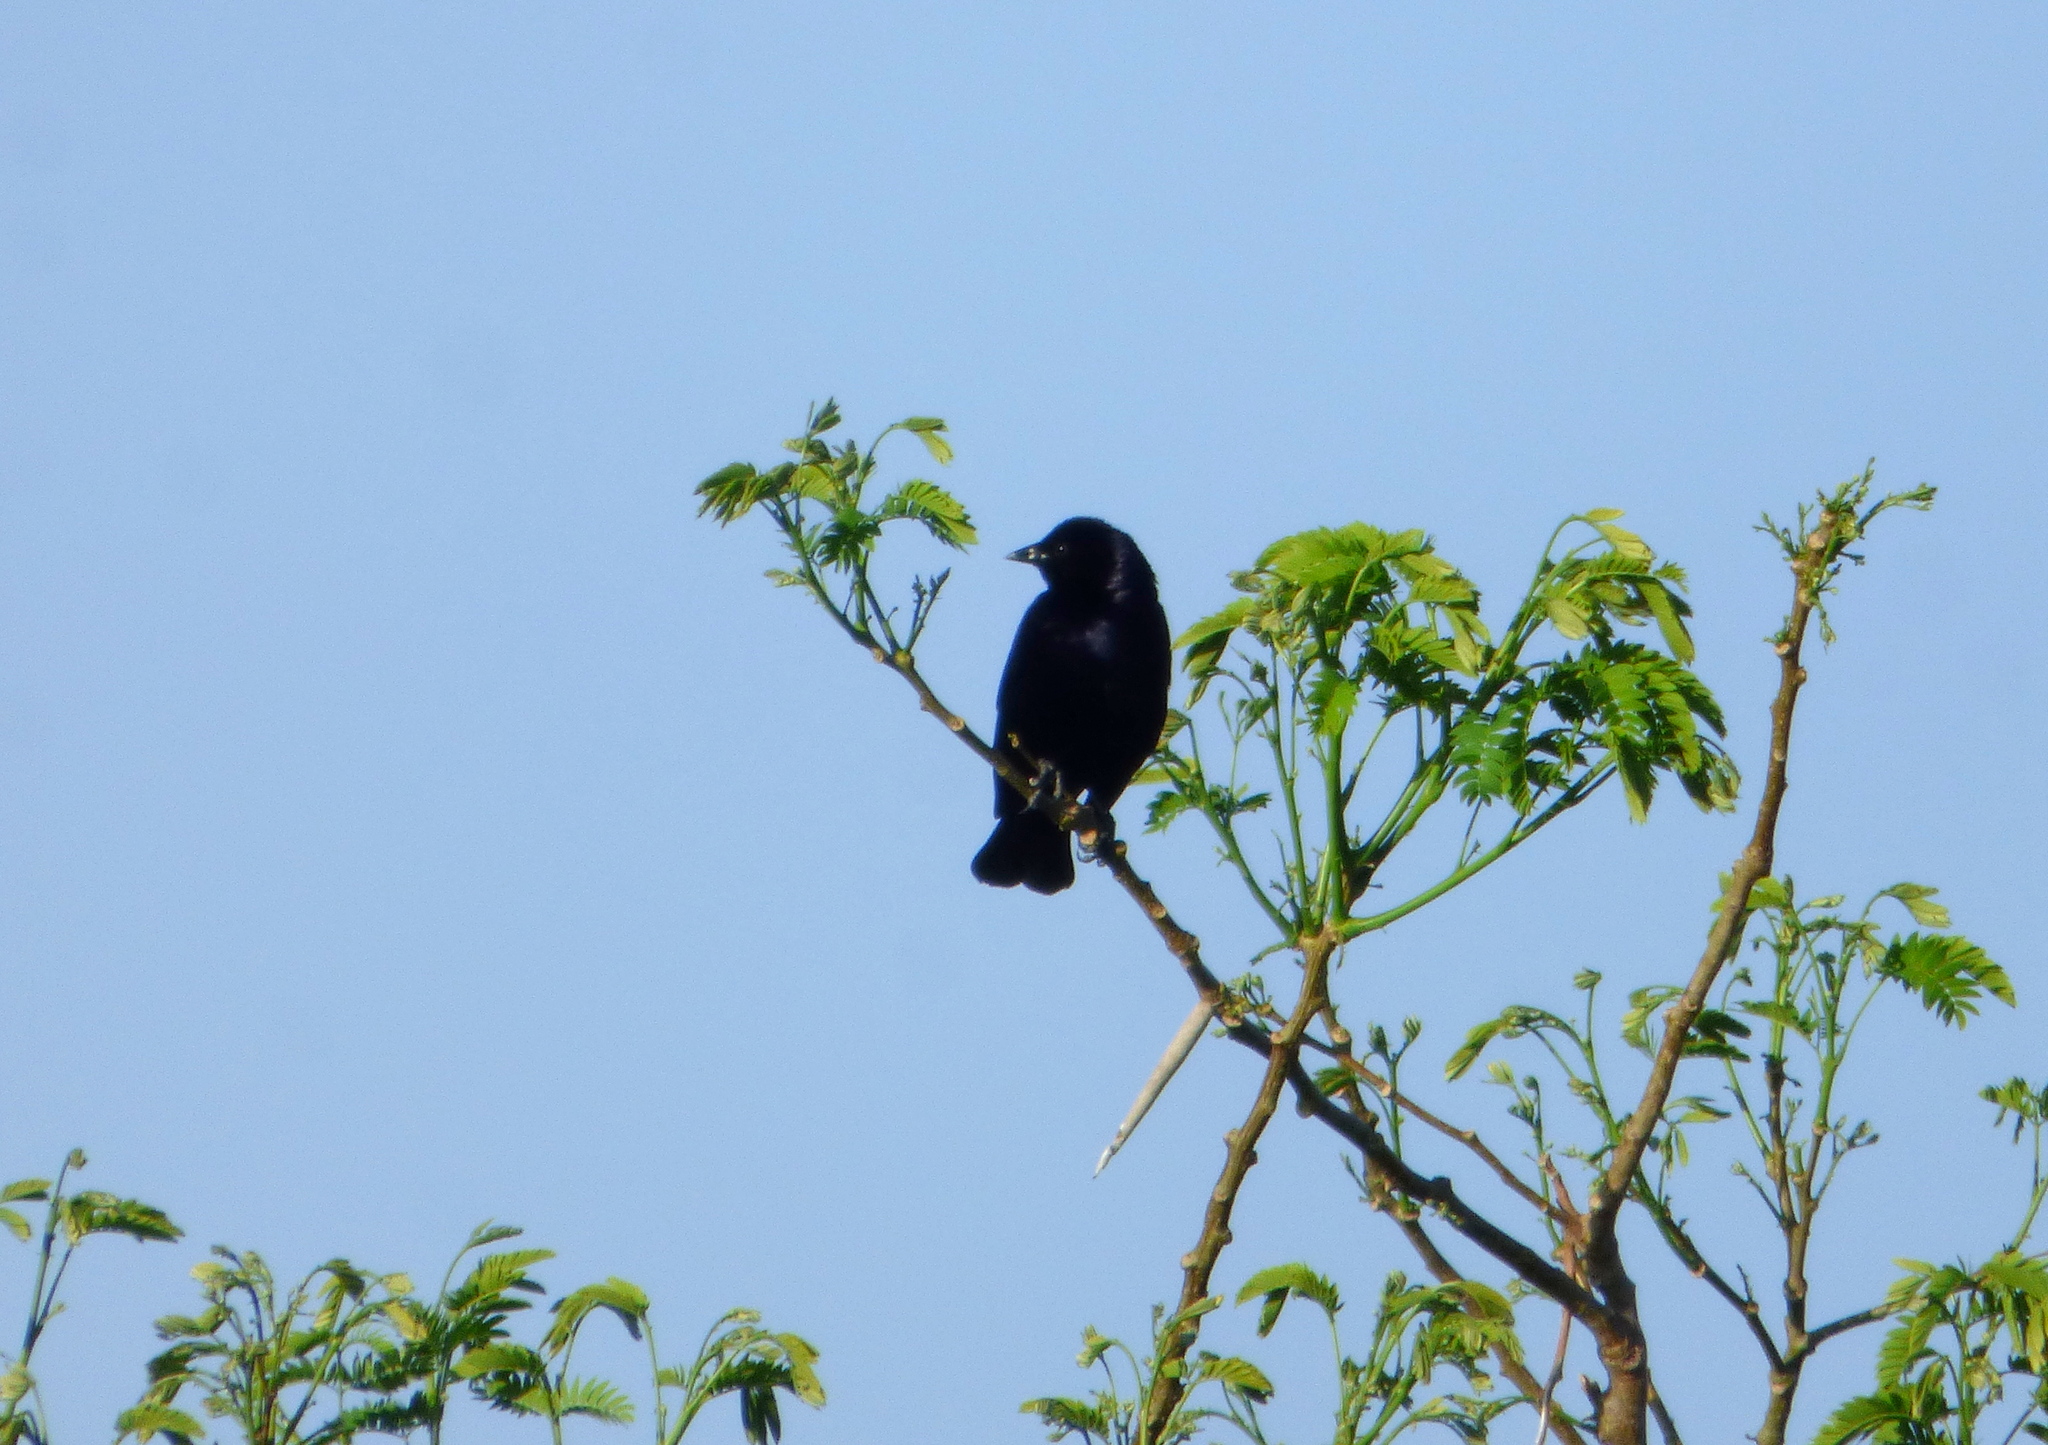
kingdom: Animalia
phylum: Chordata
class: Aves
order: Passeriformes
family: Icteridae
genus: Molothrus
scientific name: Molothrus bonariensis
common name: Shiny cowbird
